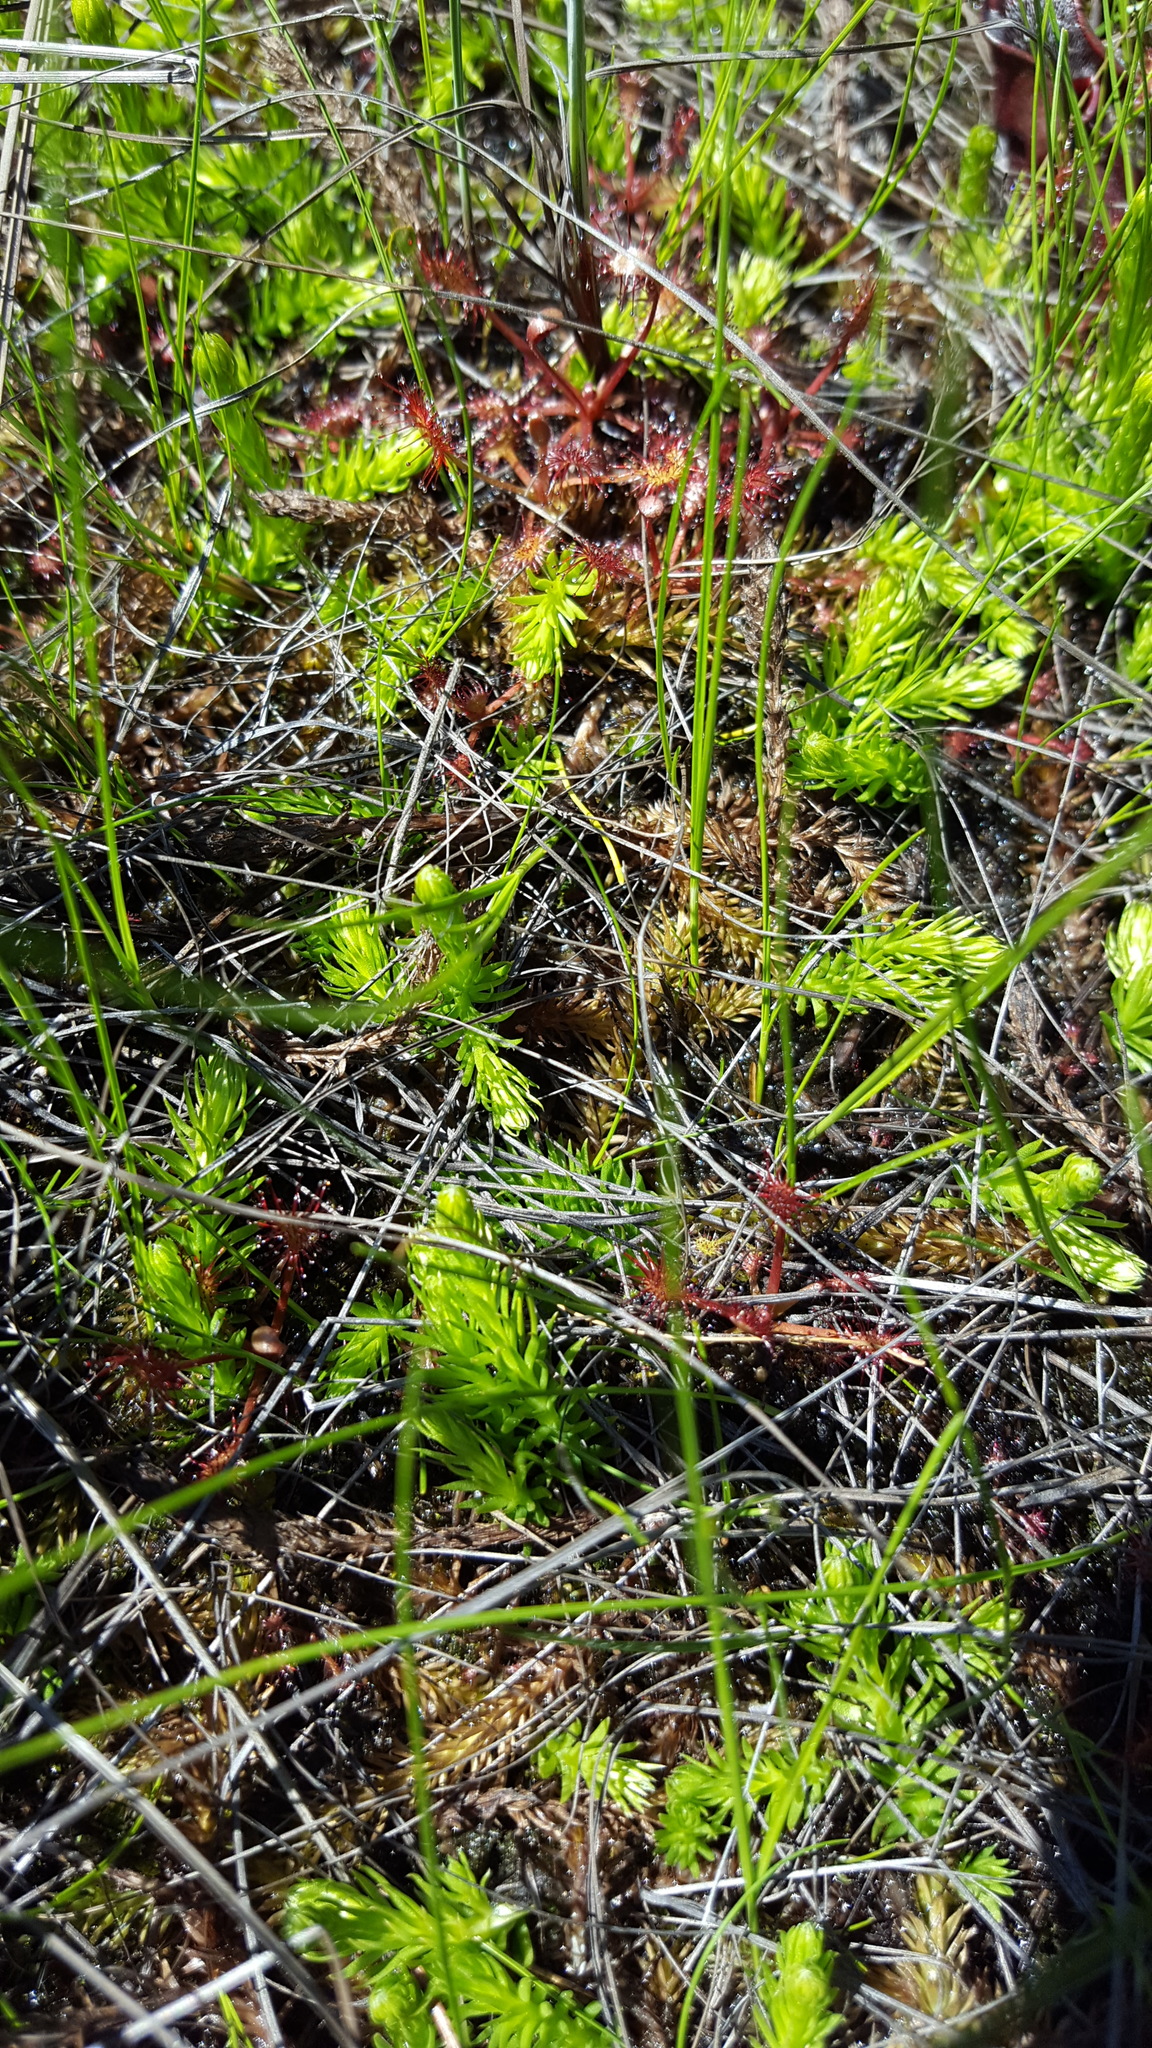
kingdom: Plantae
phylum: Tracheophyta
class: Lycopodiopsida
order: Lycopodiales
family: Lycopodiaceae
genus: Lycopodiella
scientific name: Lycopodiella inundata
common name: Marsh clubmoss
